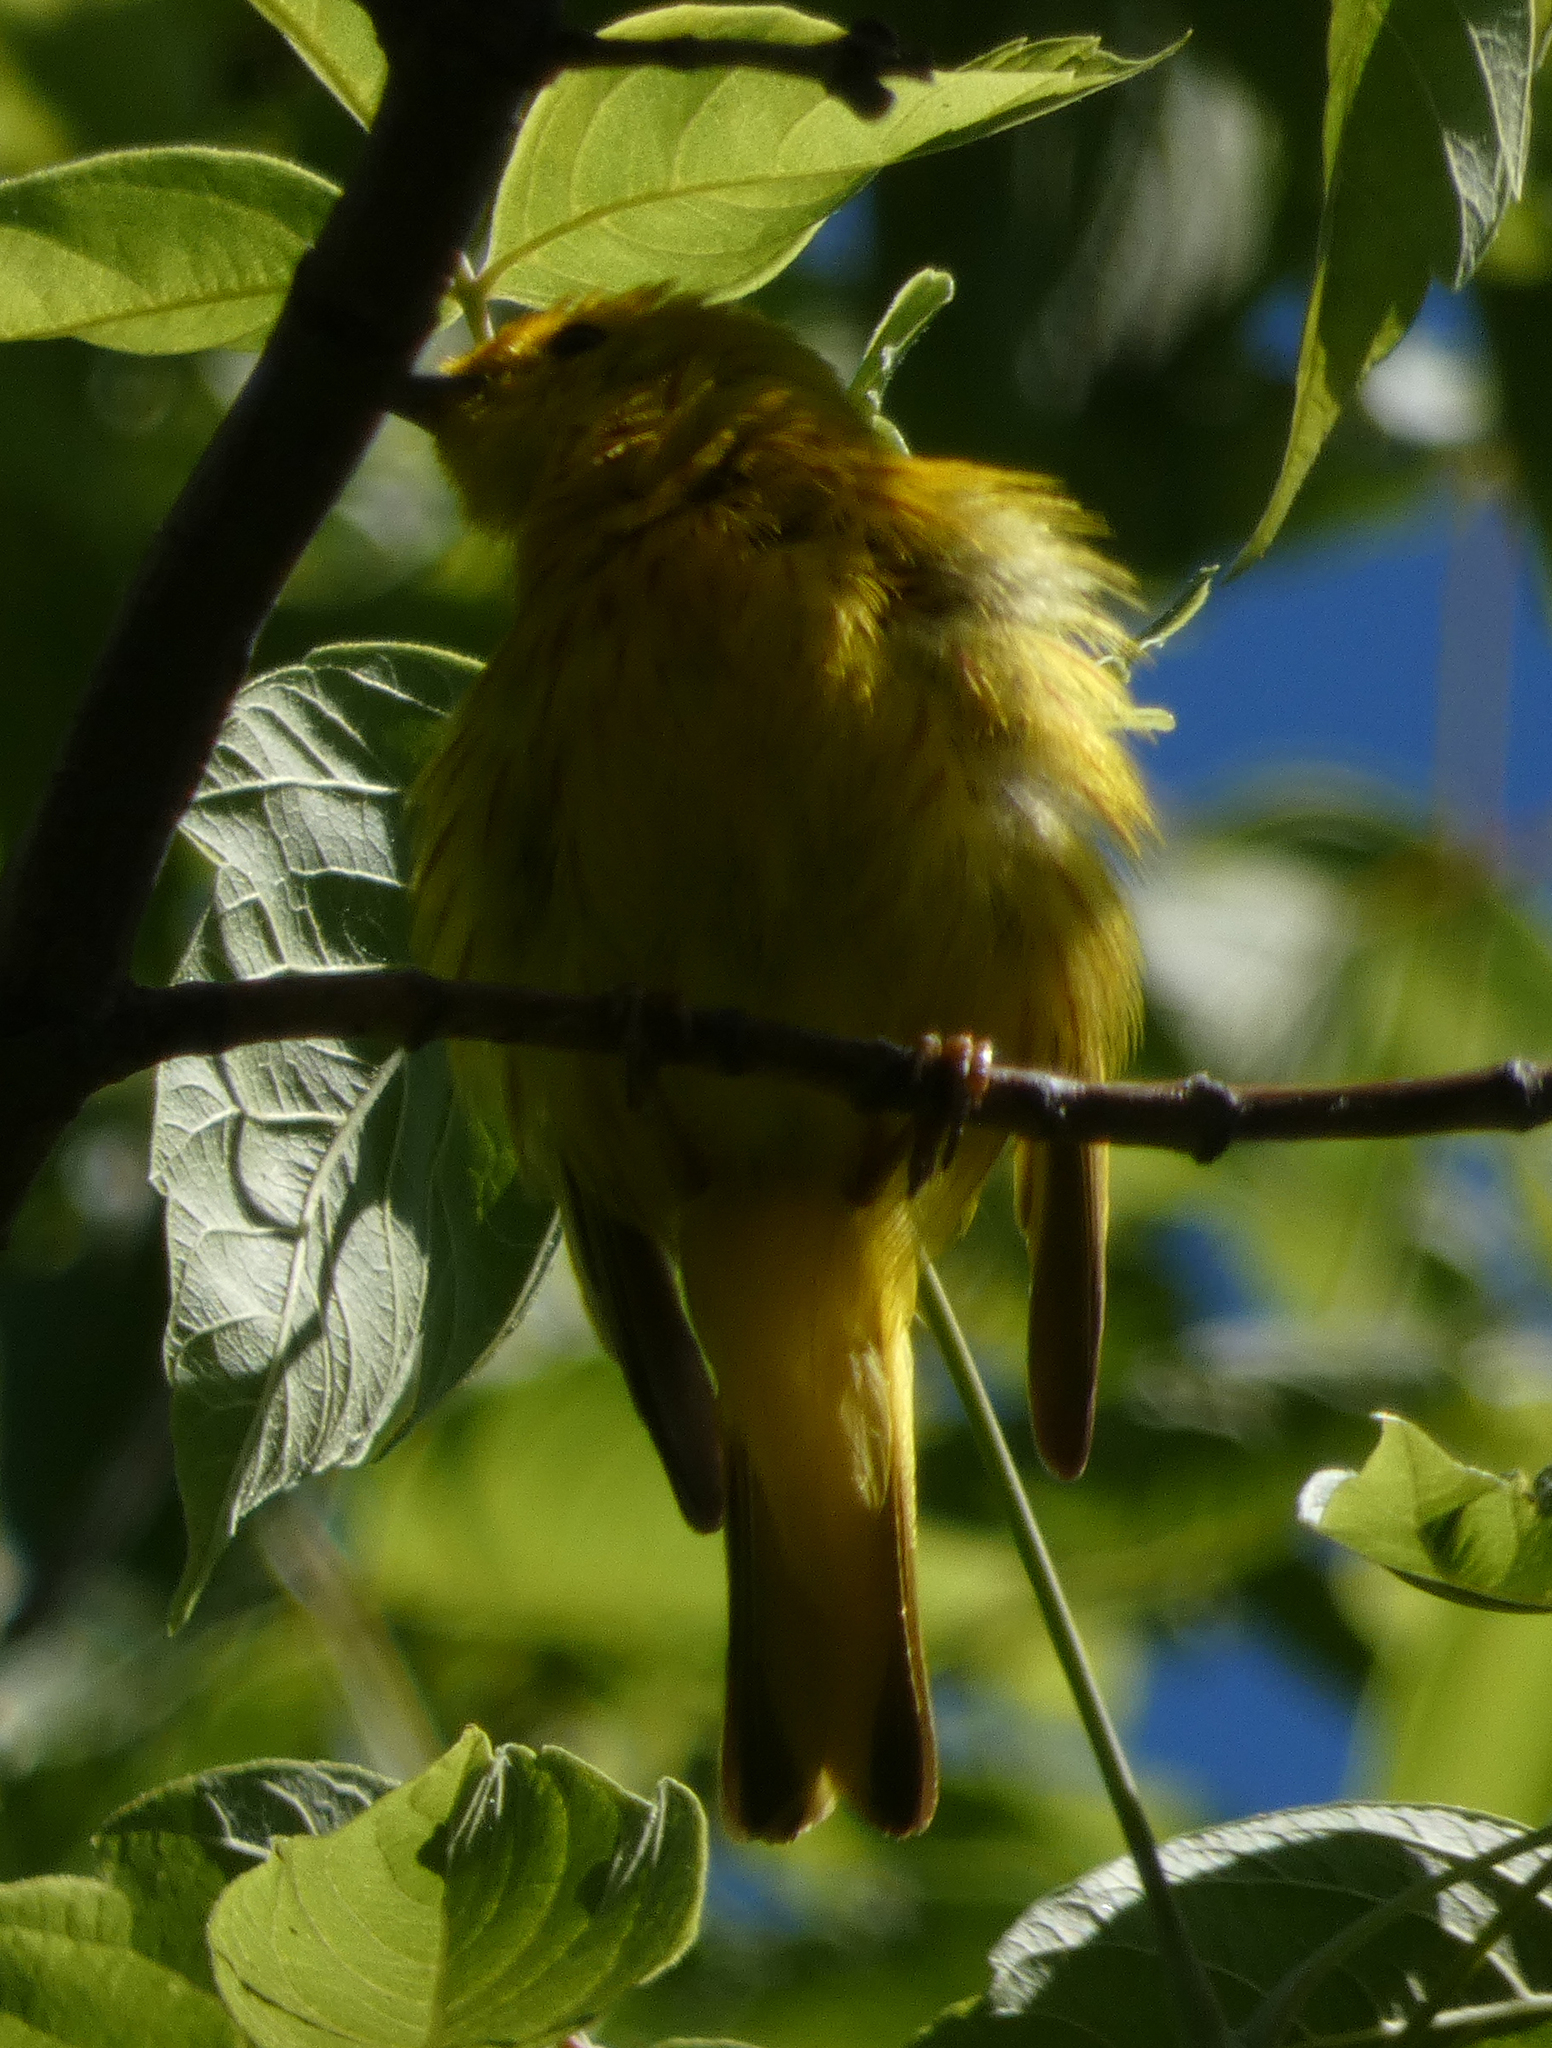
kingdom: Animalia
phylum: Chordata
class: Aves
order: Passeriformes
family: Parulidae
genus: Setophaga
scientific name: Setophaga petechia
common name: Yellow warbler
